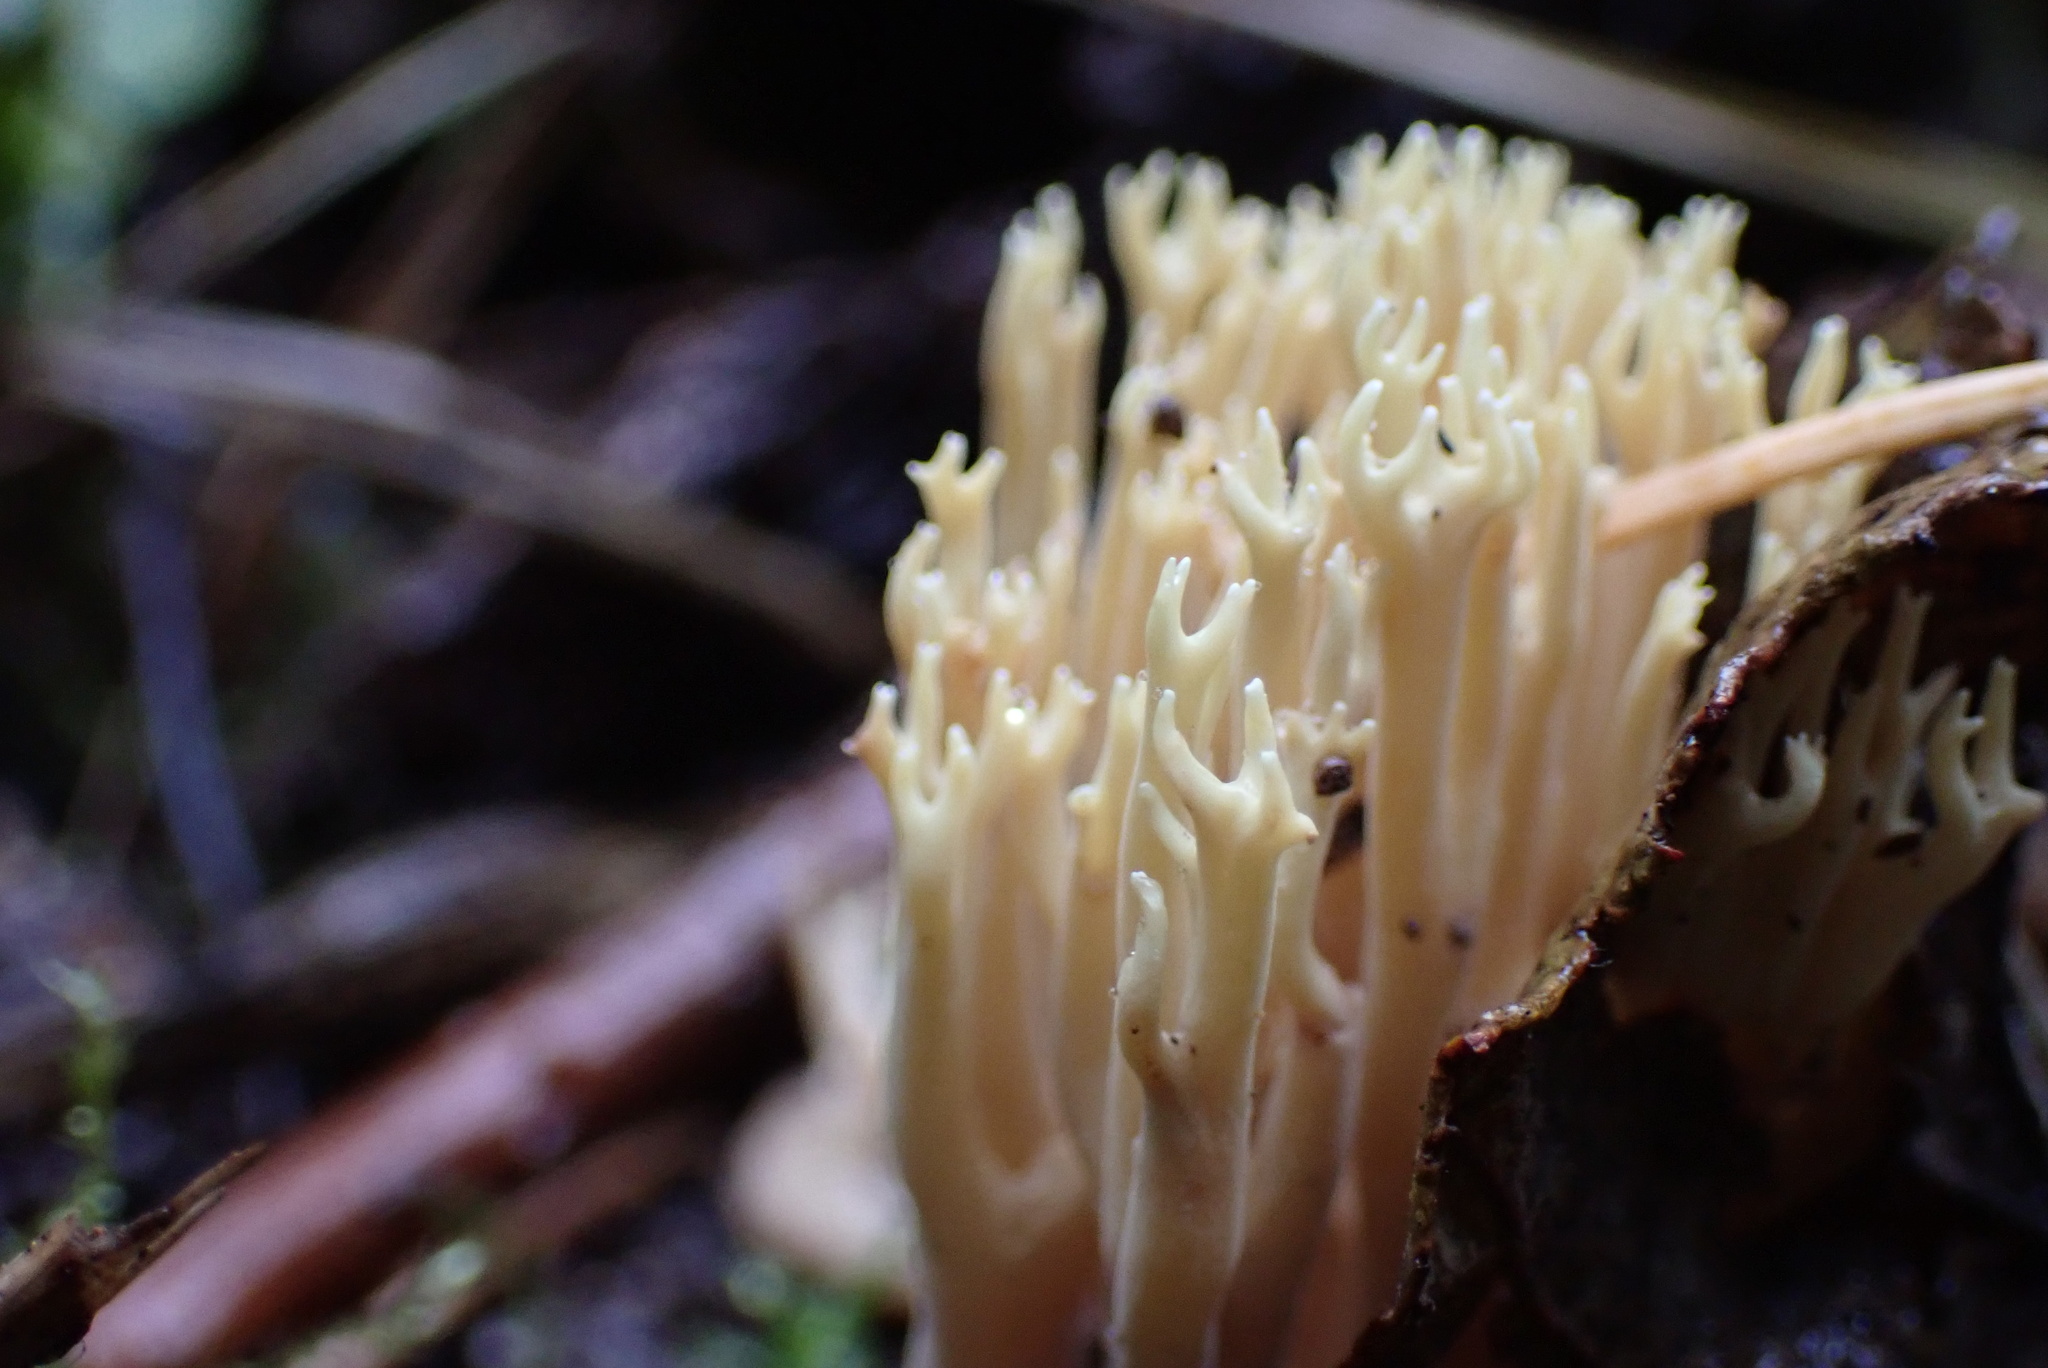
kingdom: Fungi
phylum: Basidiomycota
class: Agaricomycetes
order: Gomphales
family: Gomphaceae
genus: Ramaria
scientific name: Ramaria stricta
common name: Upright coral
